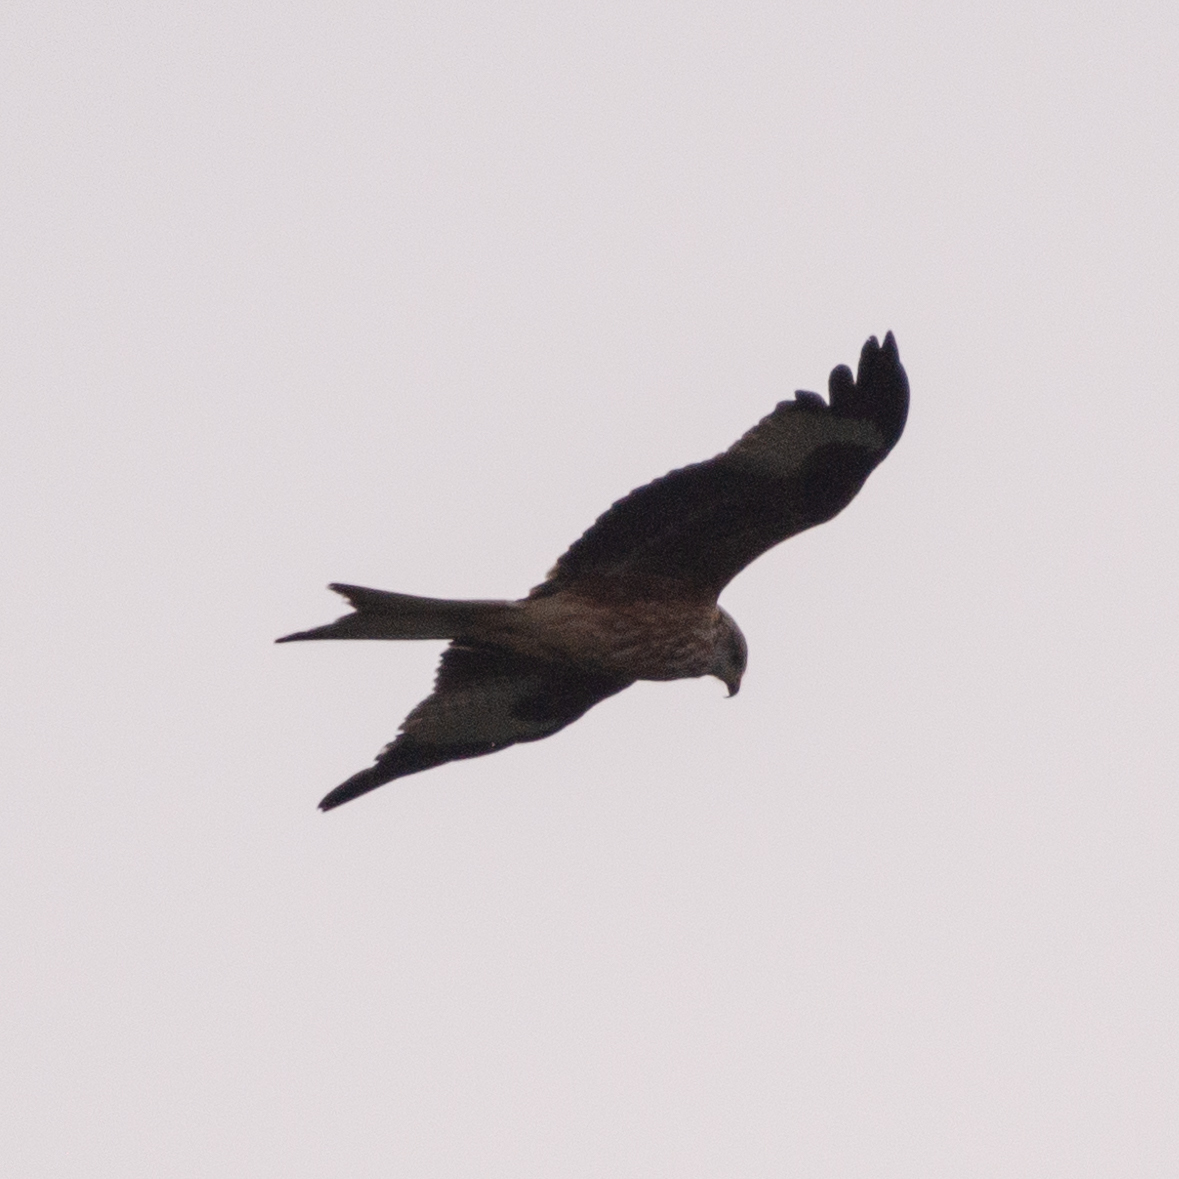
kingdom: Animalia
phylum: Chordata
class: Aves
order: Accipitriformes
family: Accipitridae
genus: Milvus
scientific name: Milvus milvus
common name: Red kite
